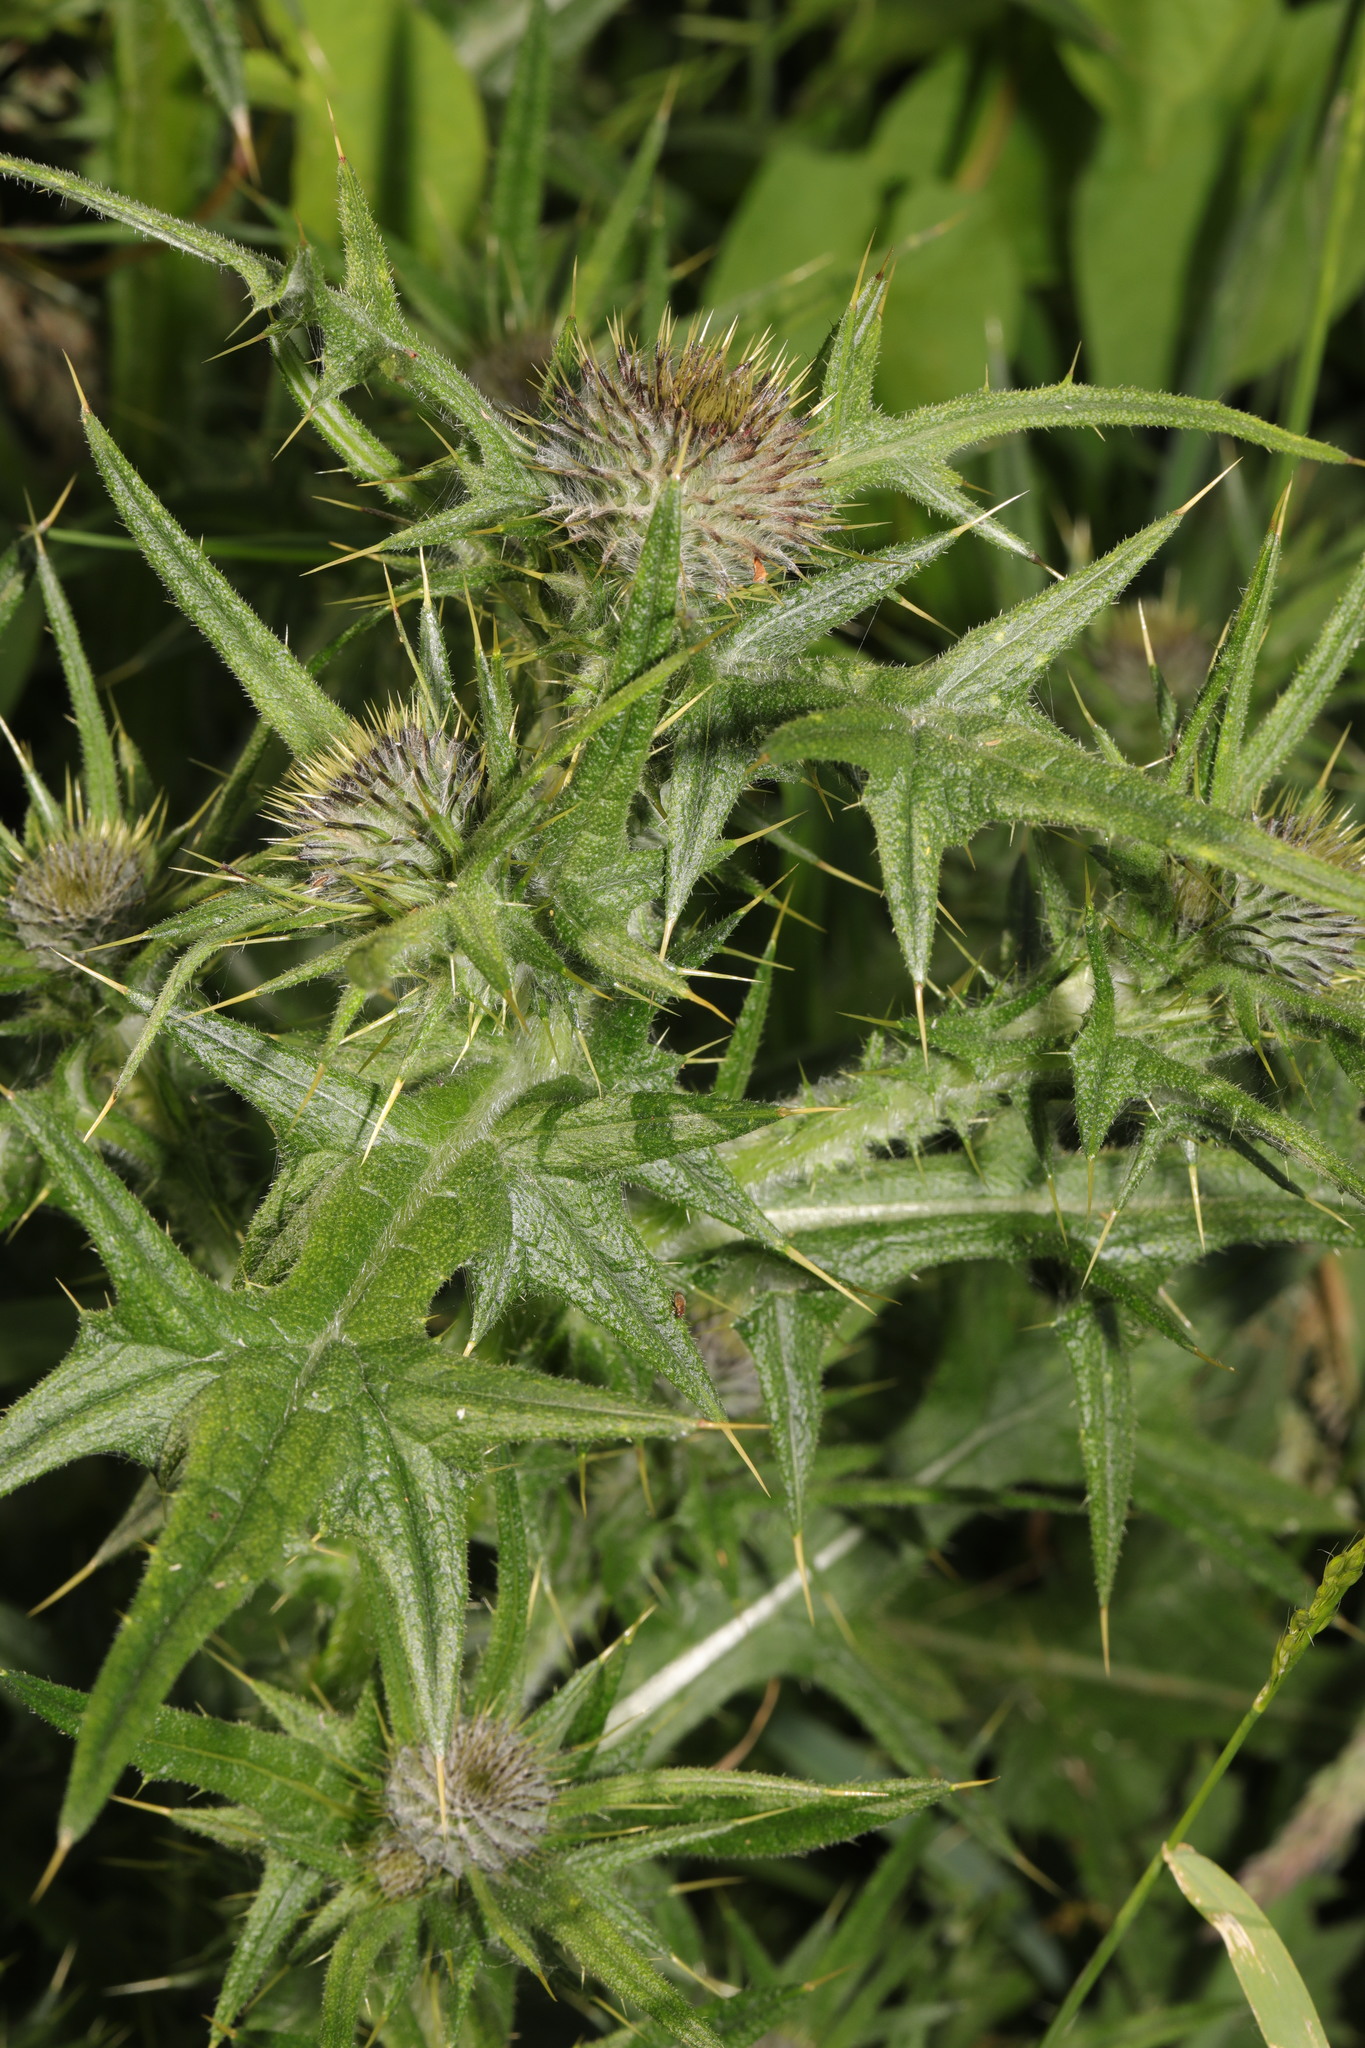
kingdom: Plantae
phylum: Tracheophyta
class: Magnoliopsida
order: Asterales
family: Asteraceae
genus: Cirsium
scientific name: Cirsium vulgare
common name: Bull thistle
